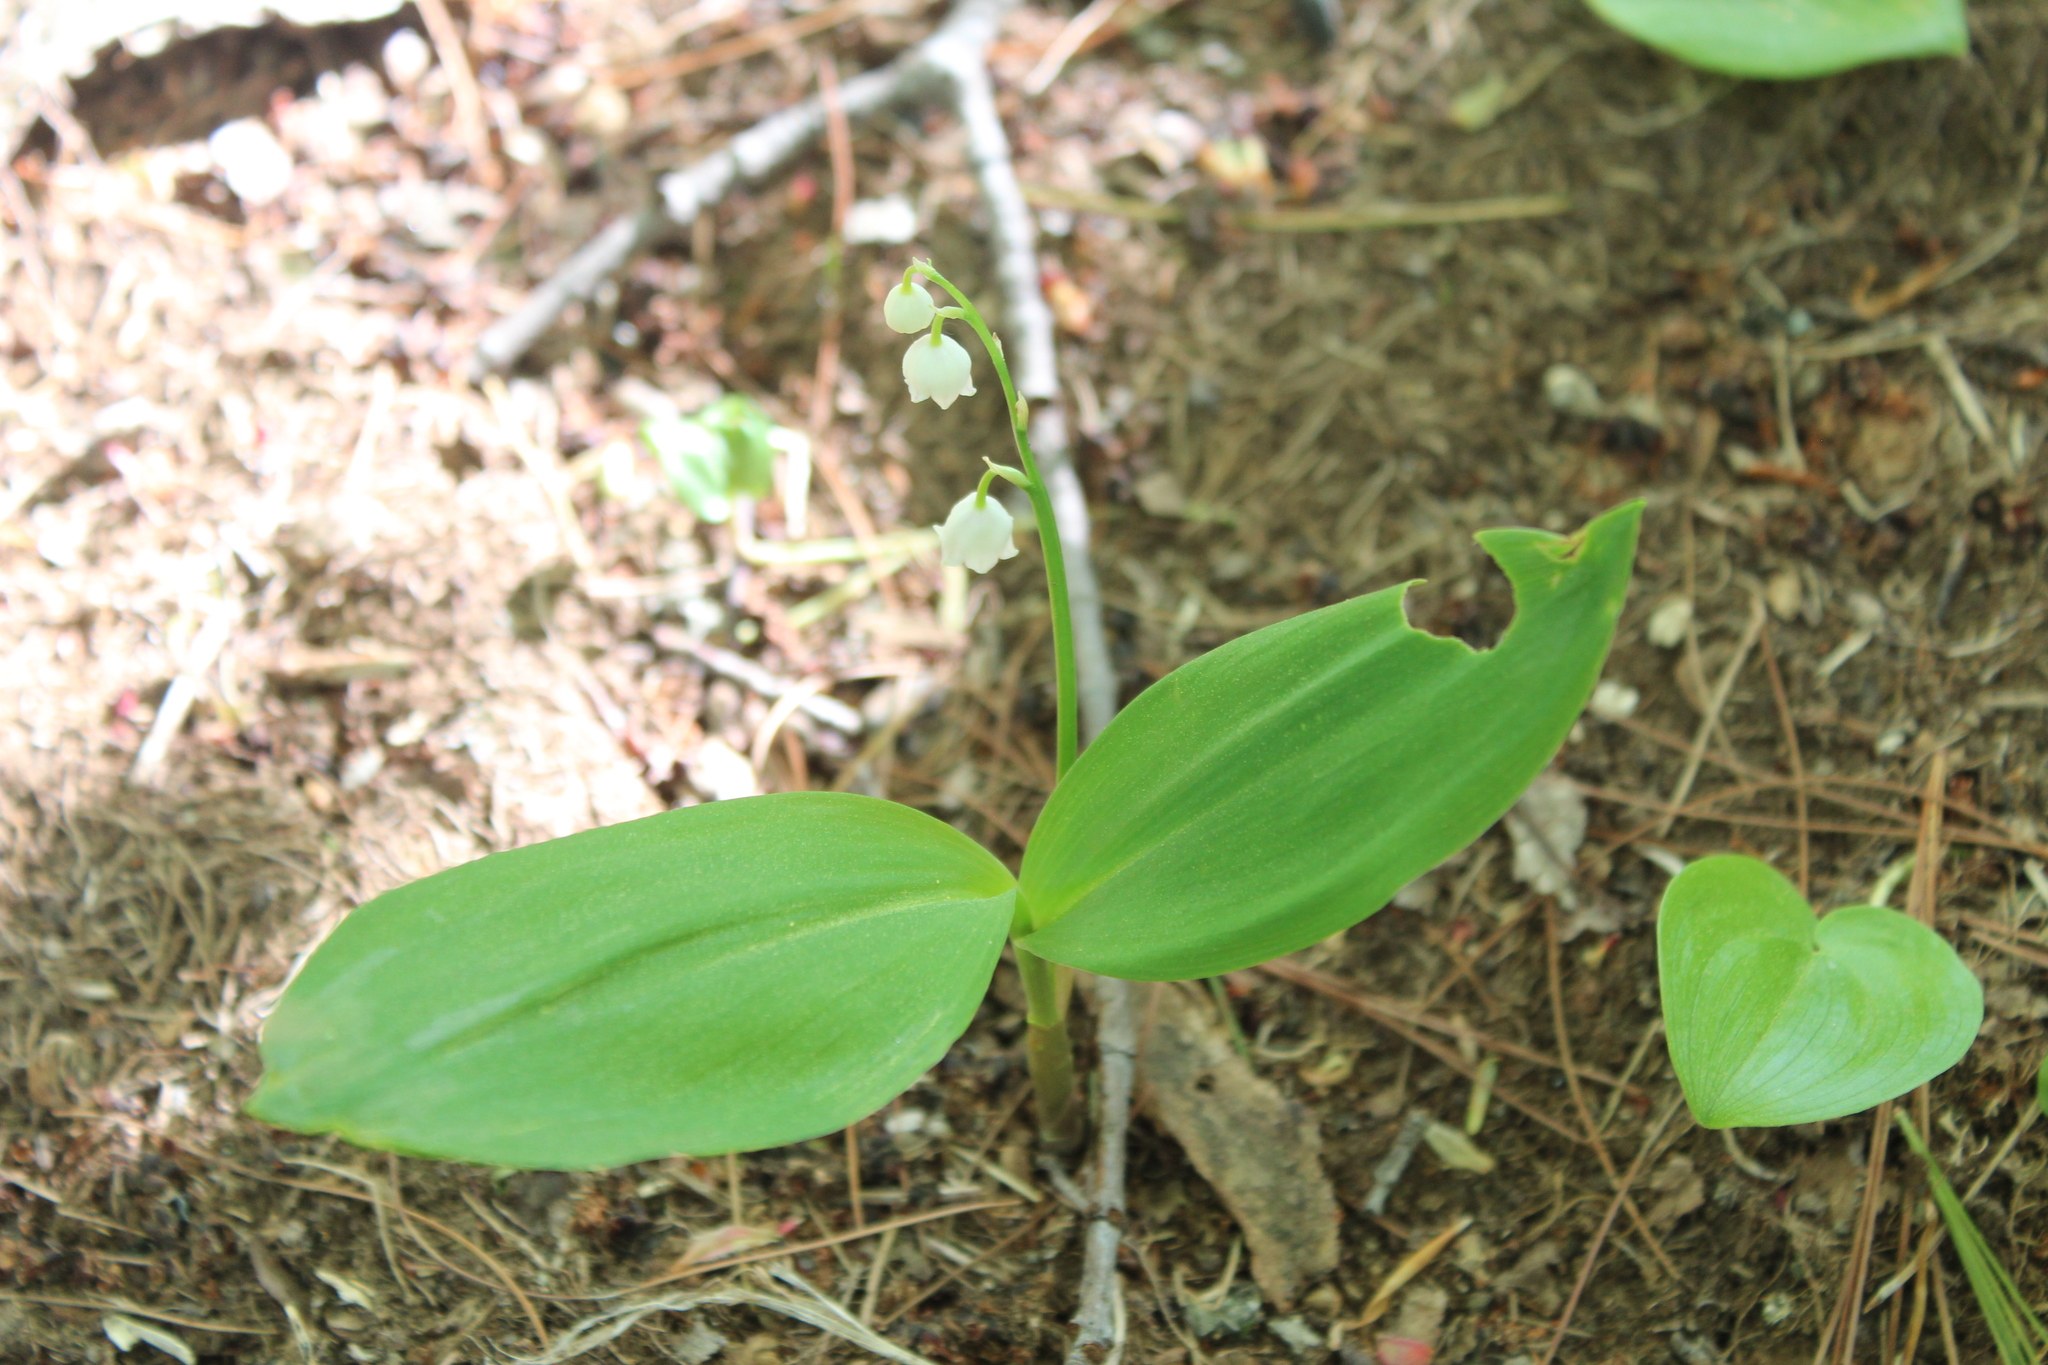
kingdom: Plantae
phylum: Tracheophyta
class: Liliopsida
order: Asparagales
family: Asparagaceae
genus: Convallaria
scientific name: Convallaria majalis
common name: Lily-of-the-valley
